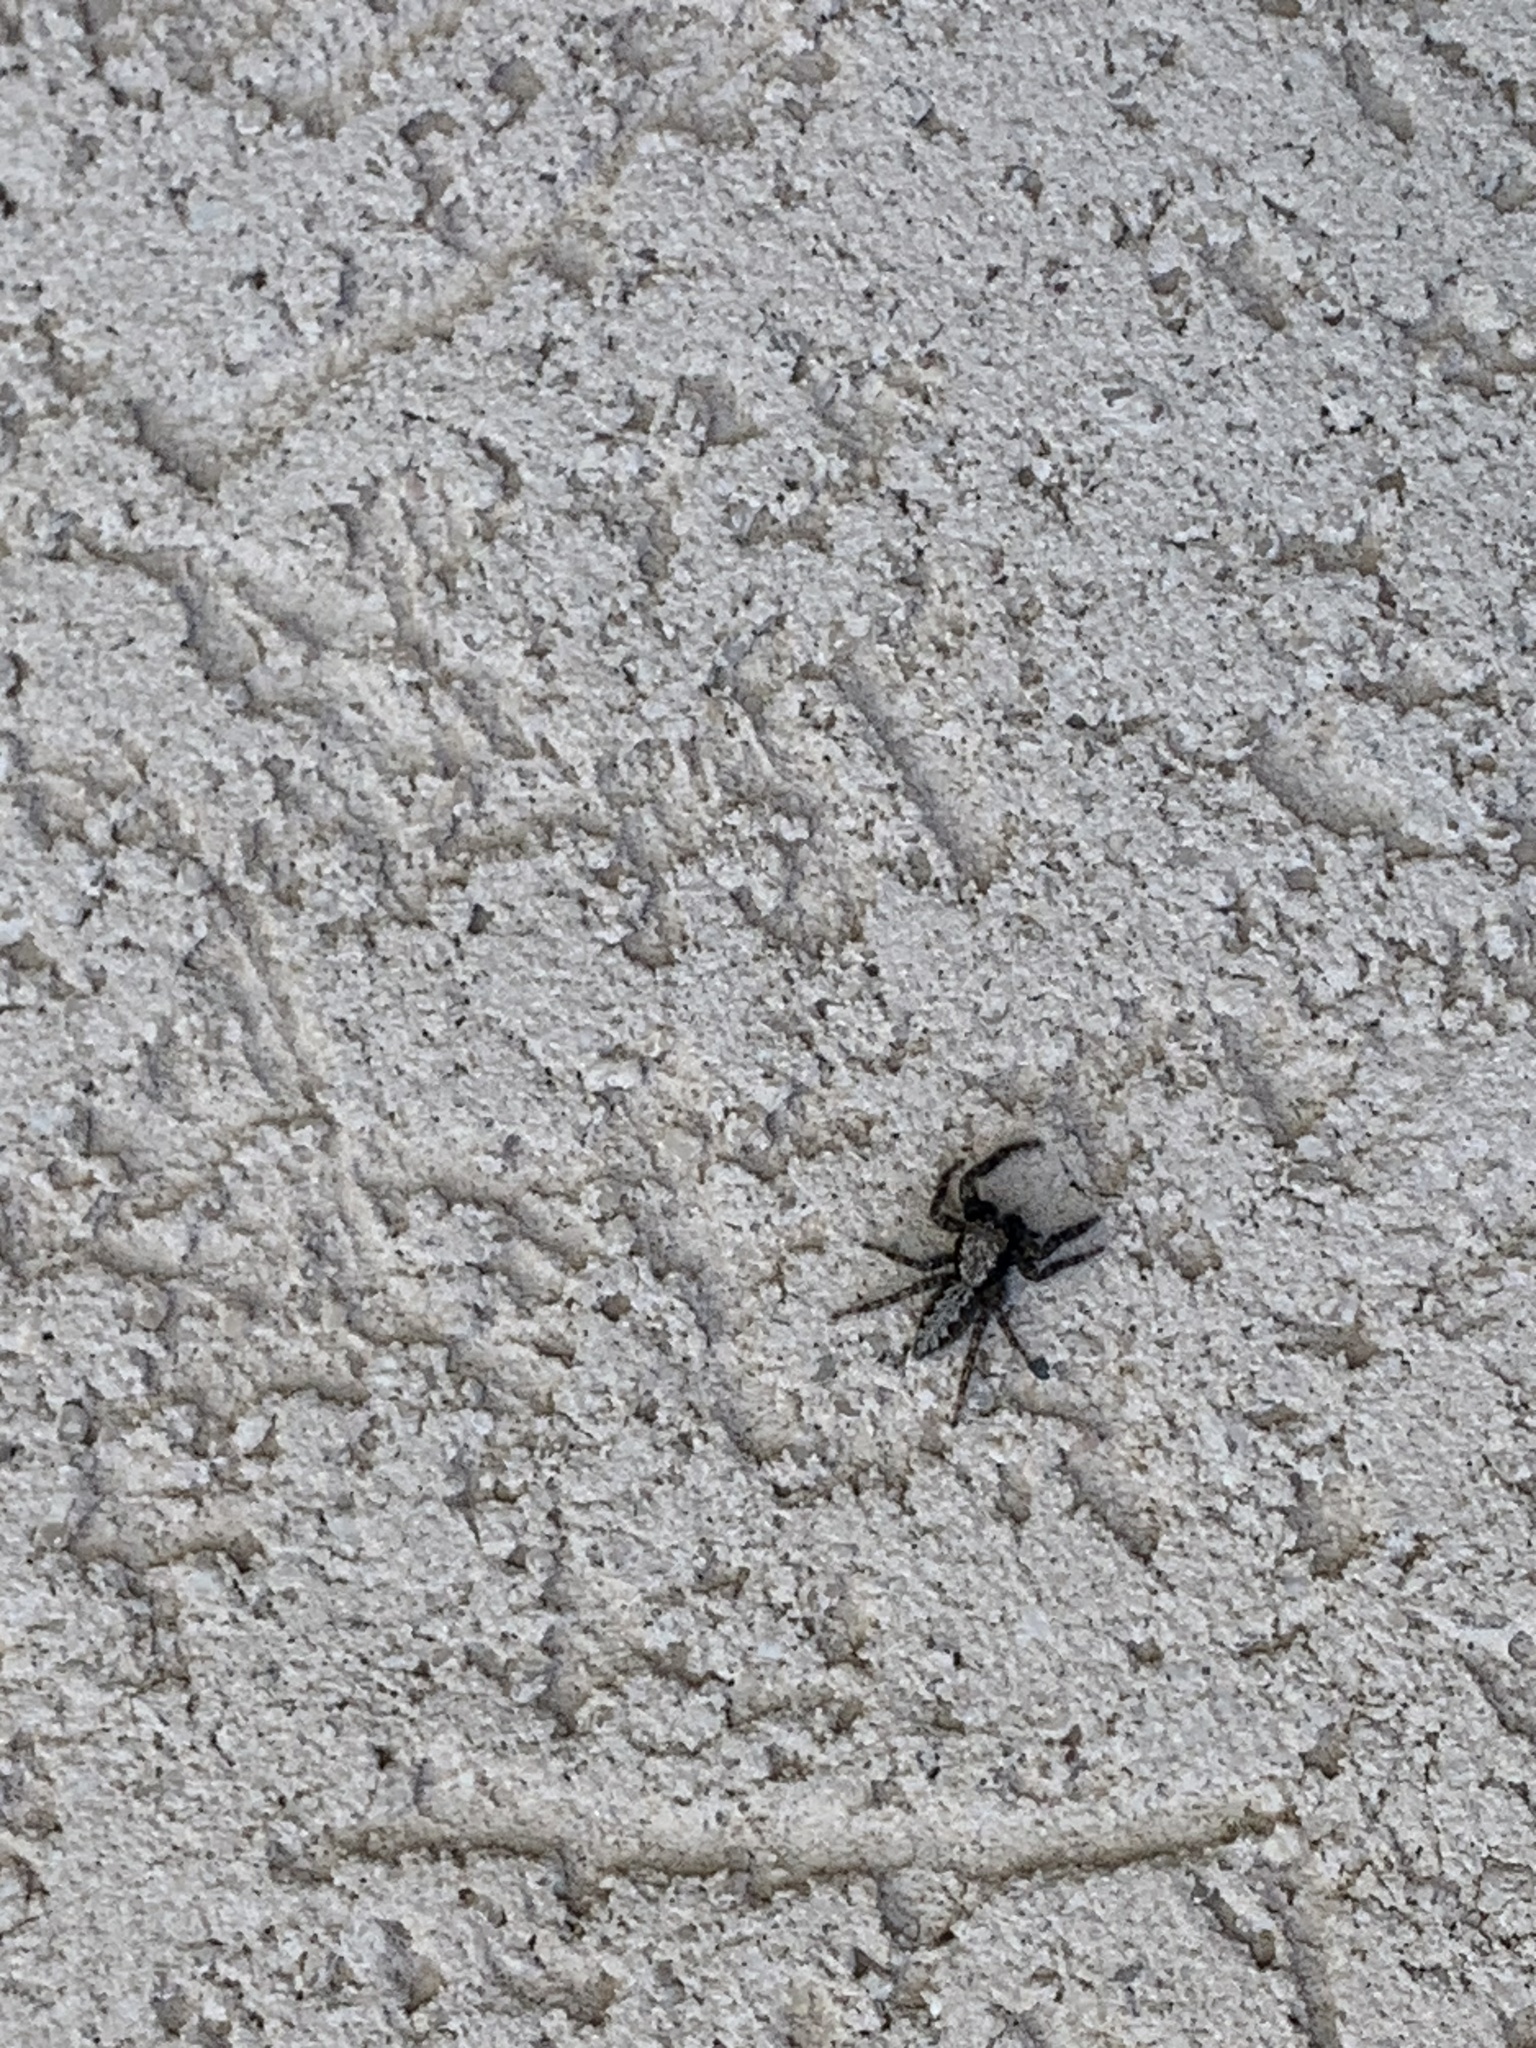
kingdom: Animalia
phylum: Arthropoda
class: Arachnida
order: Araneae
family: Salticidae
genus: Platycryptus
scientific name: Platycryptus californicus
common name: Jumping spiders
